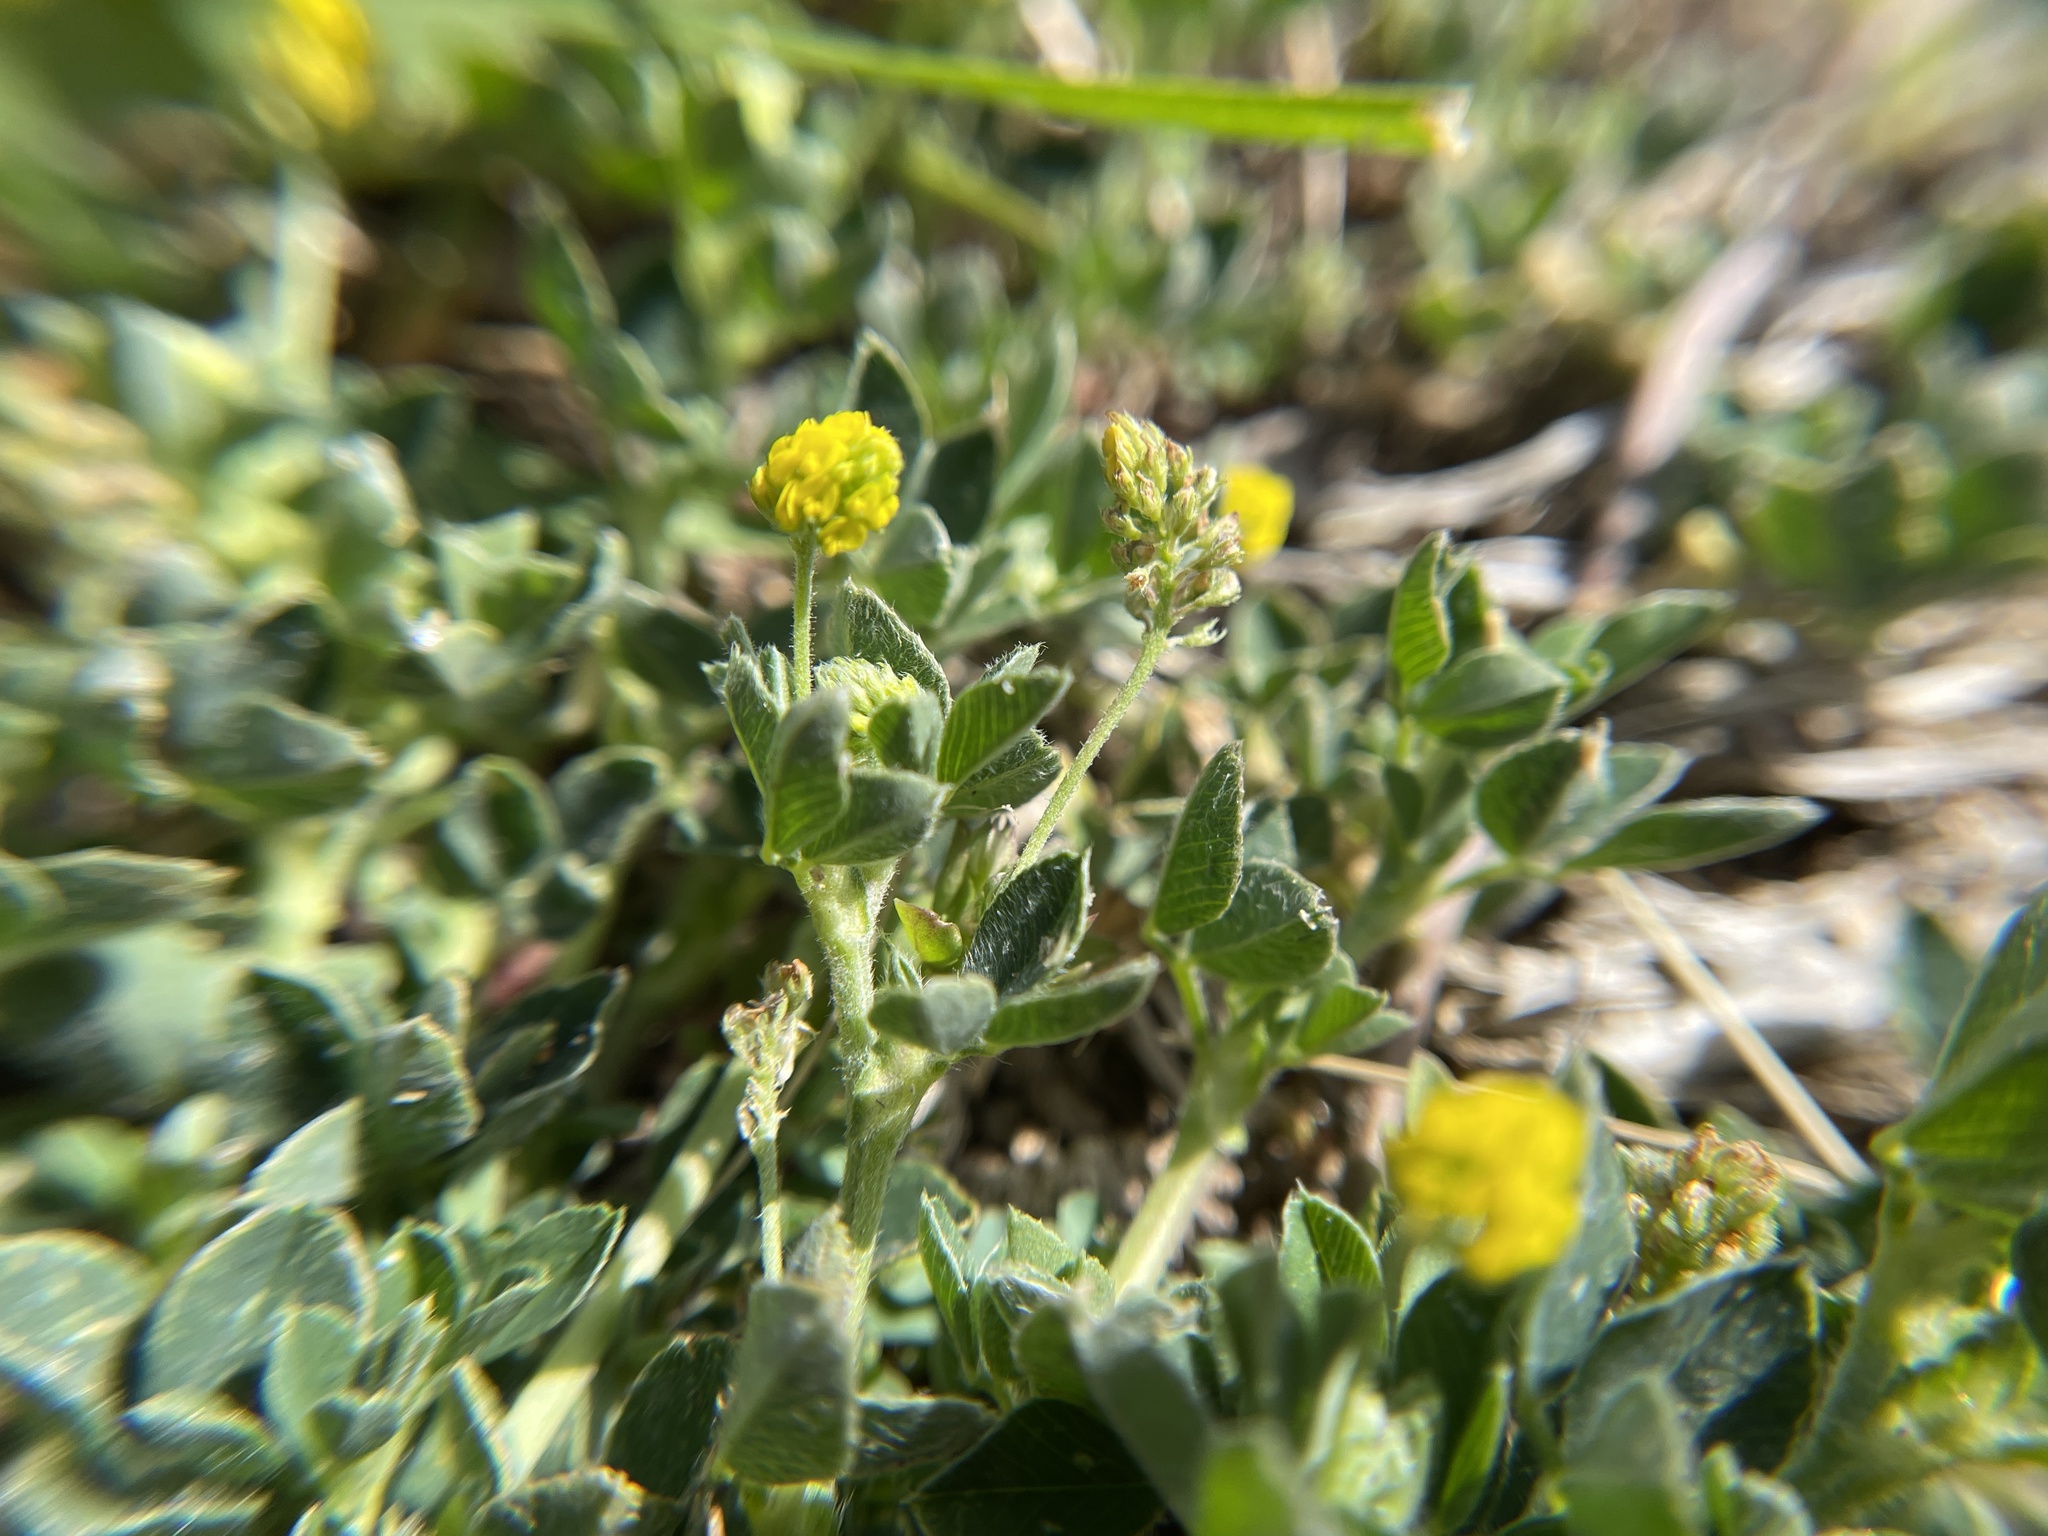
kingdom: Plantae
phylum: Tracheophyta
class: Magnoliopsida
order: Fabales
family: Fabaceae
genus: Medicago
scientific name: Medicago lupulina
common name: Black medick
